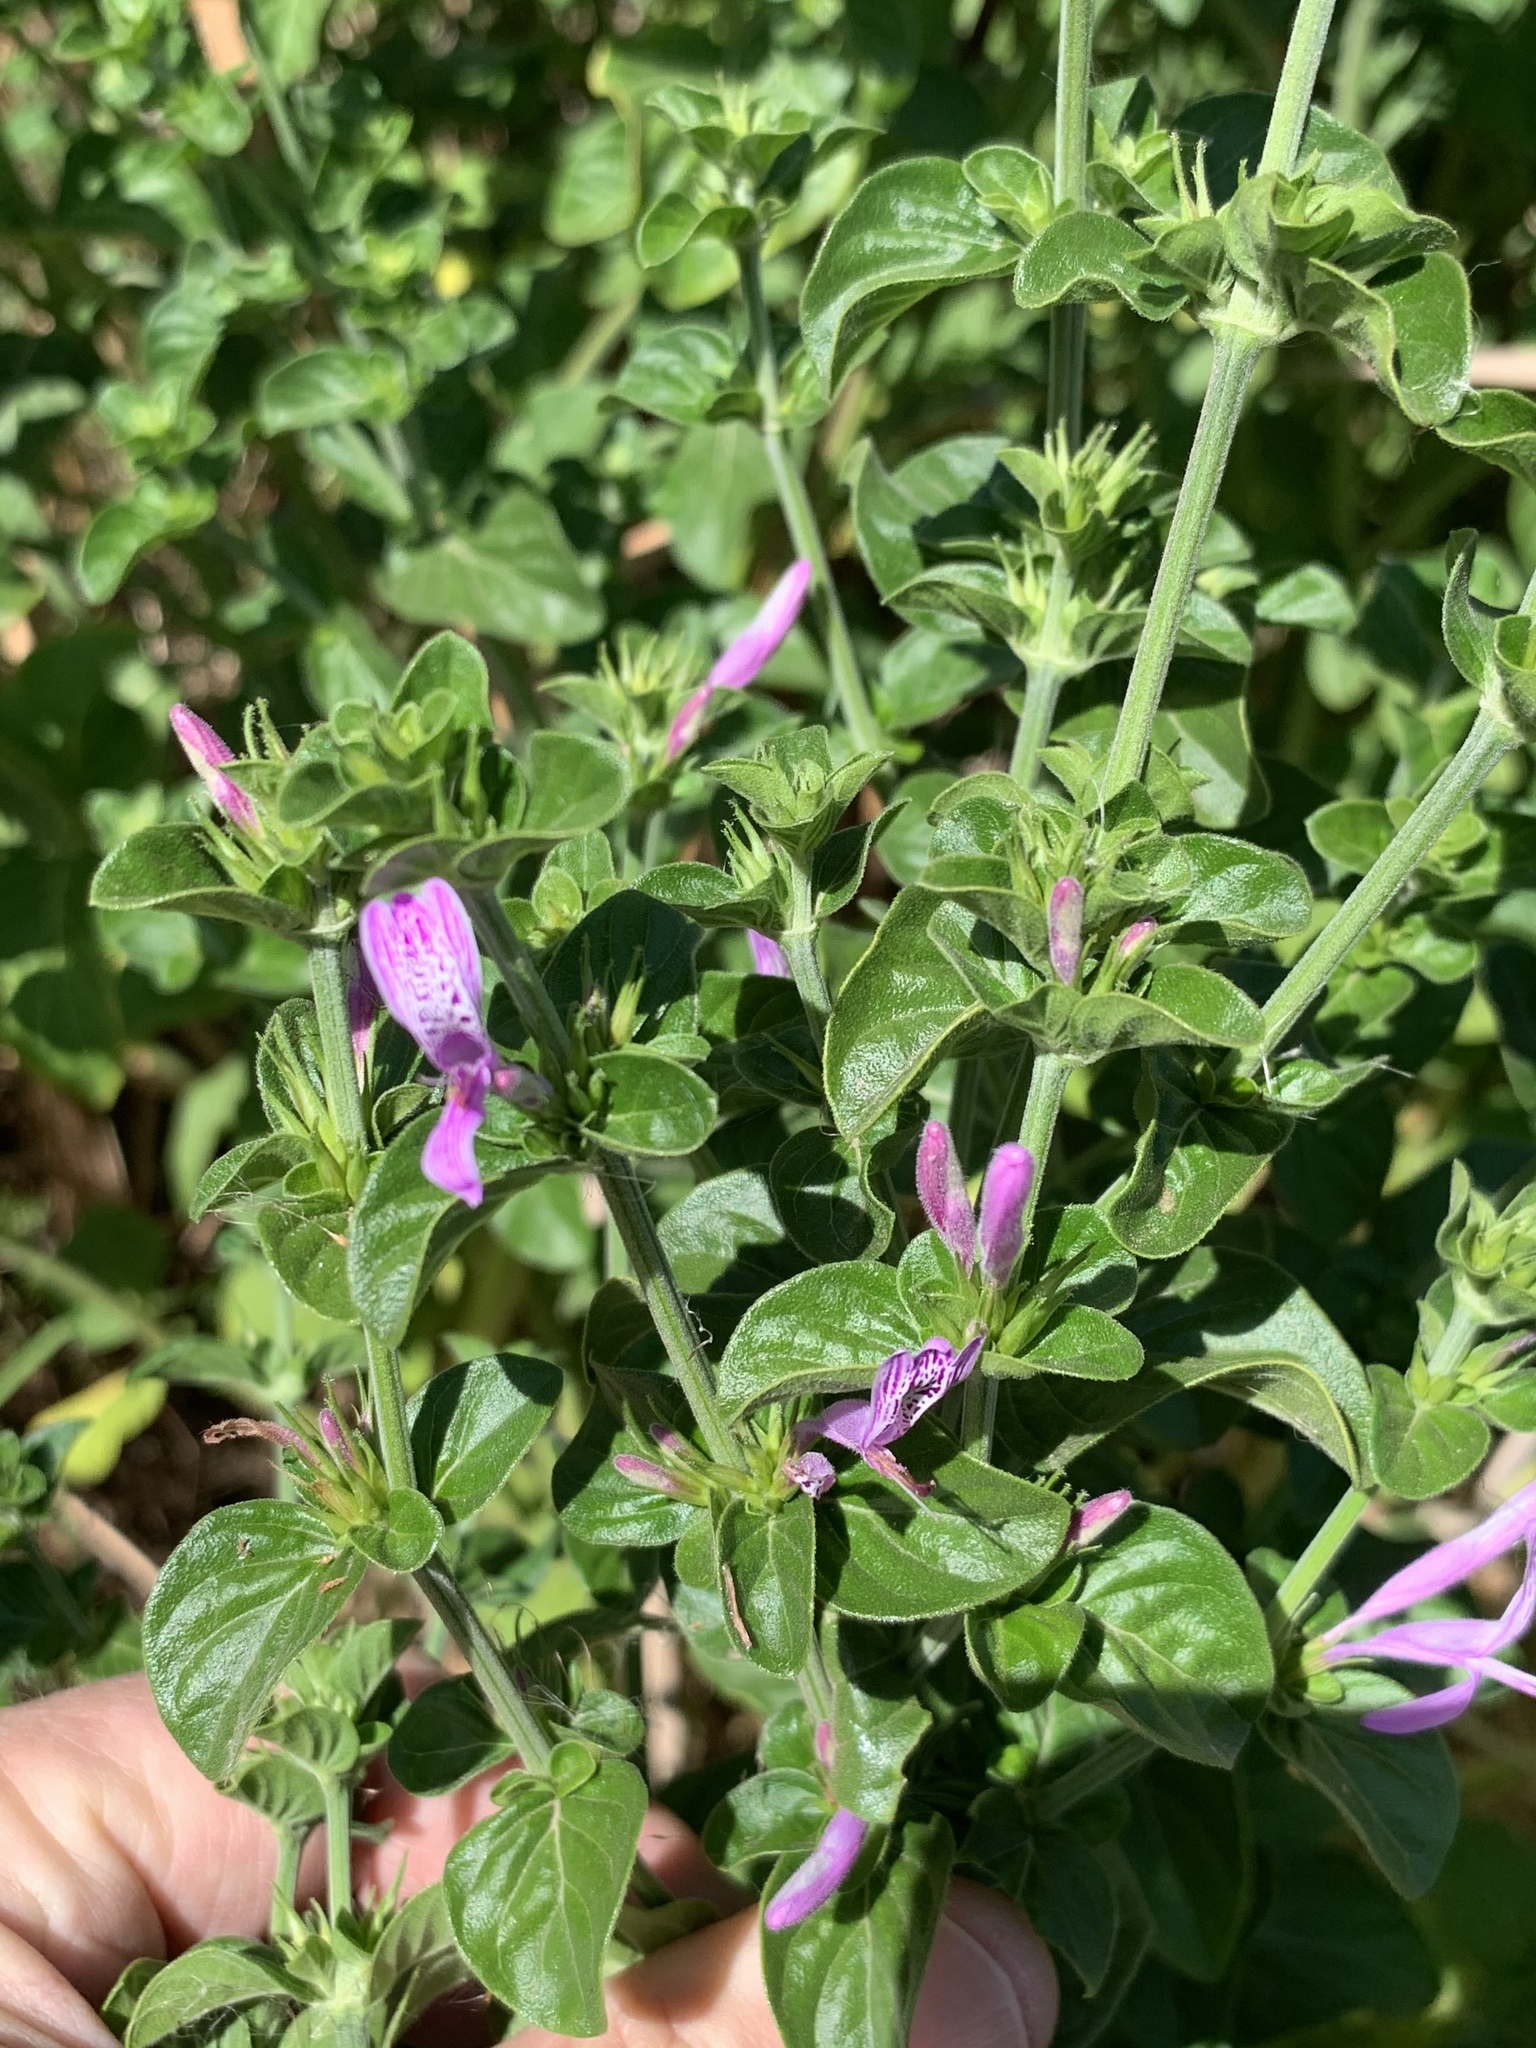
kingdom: Plantae
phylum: Tracheophyta
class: Magnoliopsida
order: Lamiales
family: Acanthaceae
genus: Hypoestes
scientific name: Hypoestes aristata
